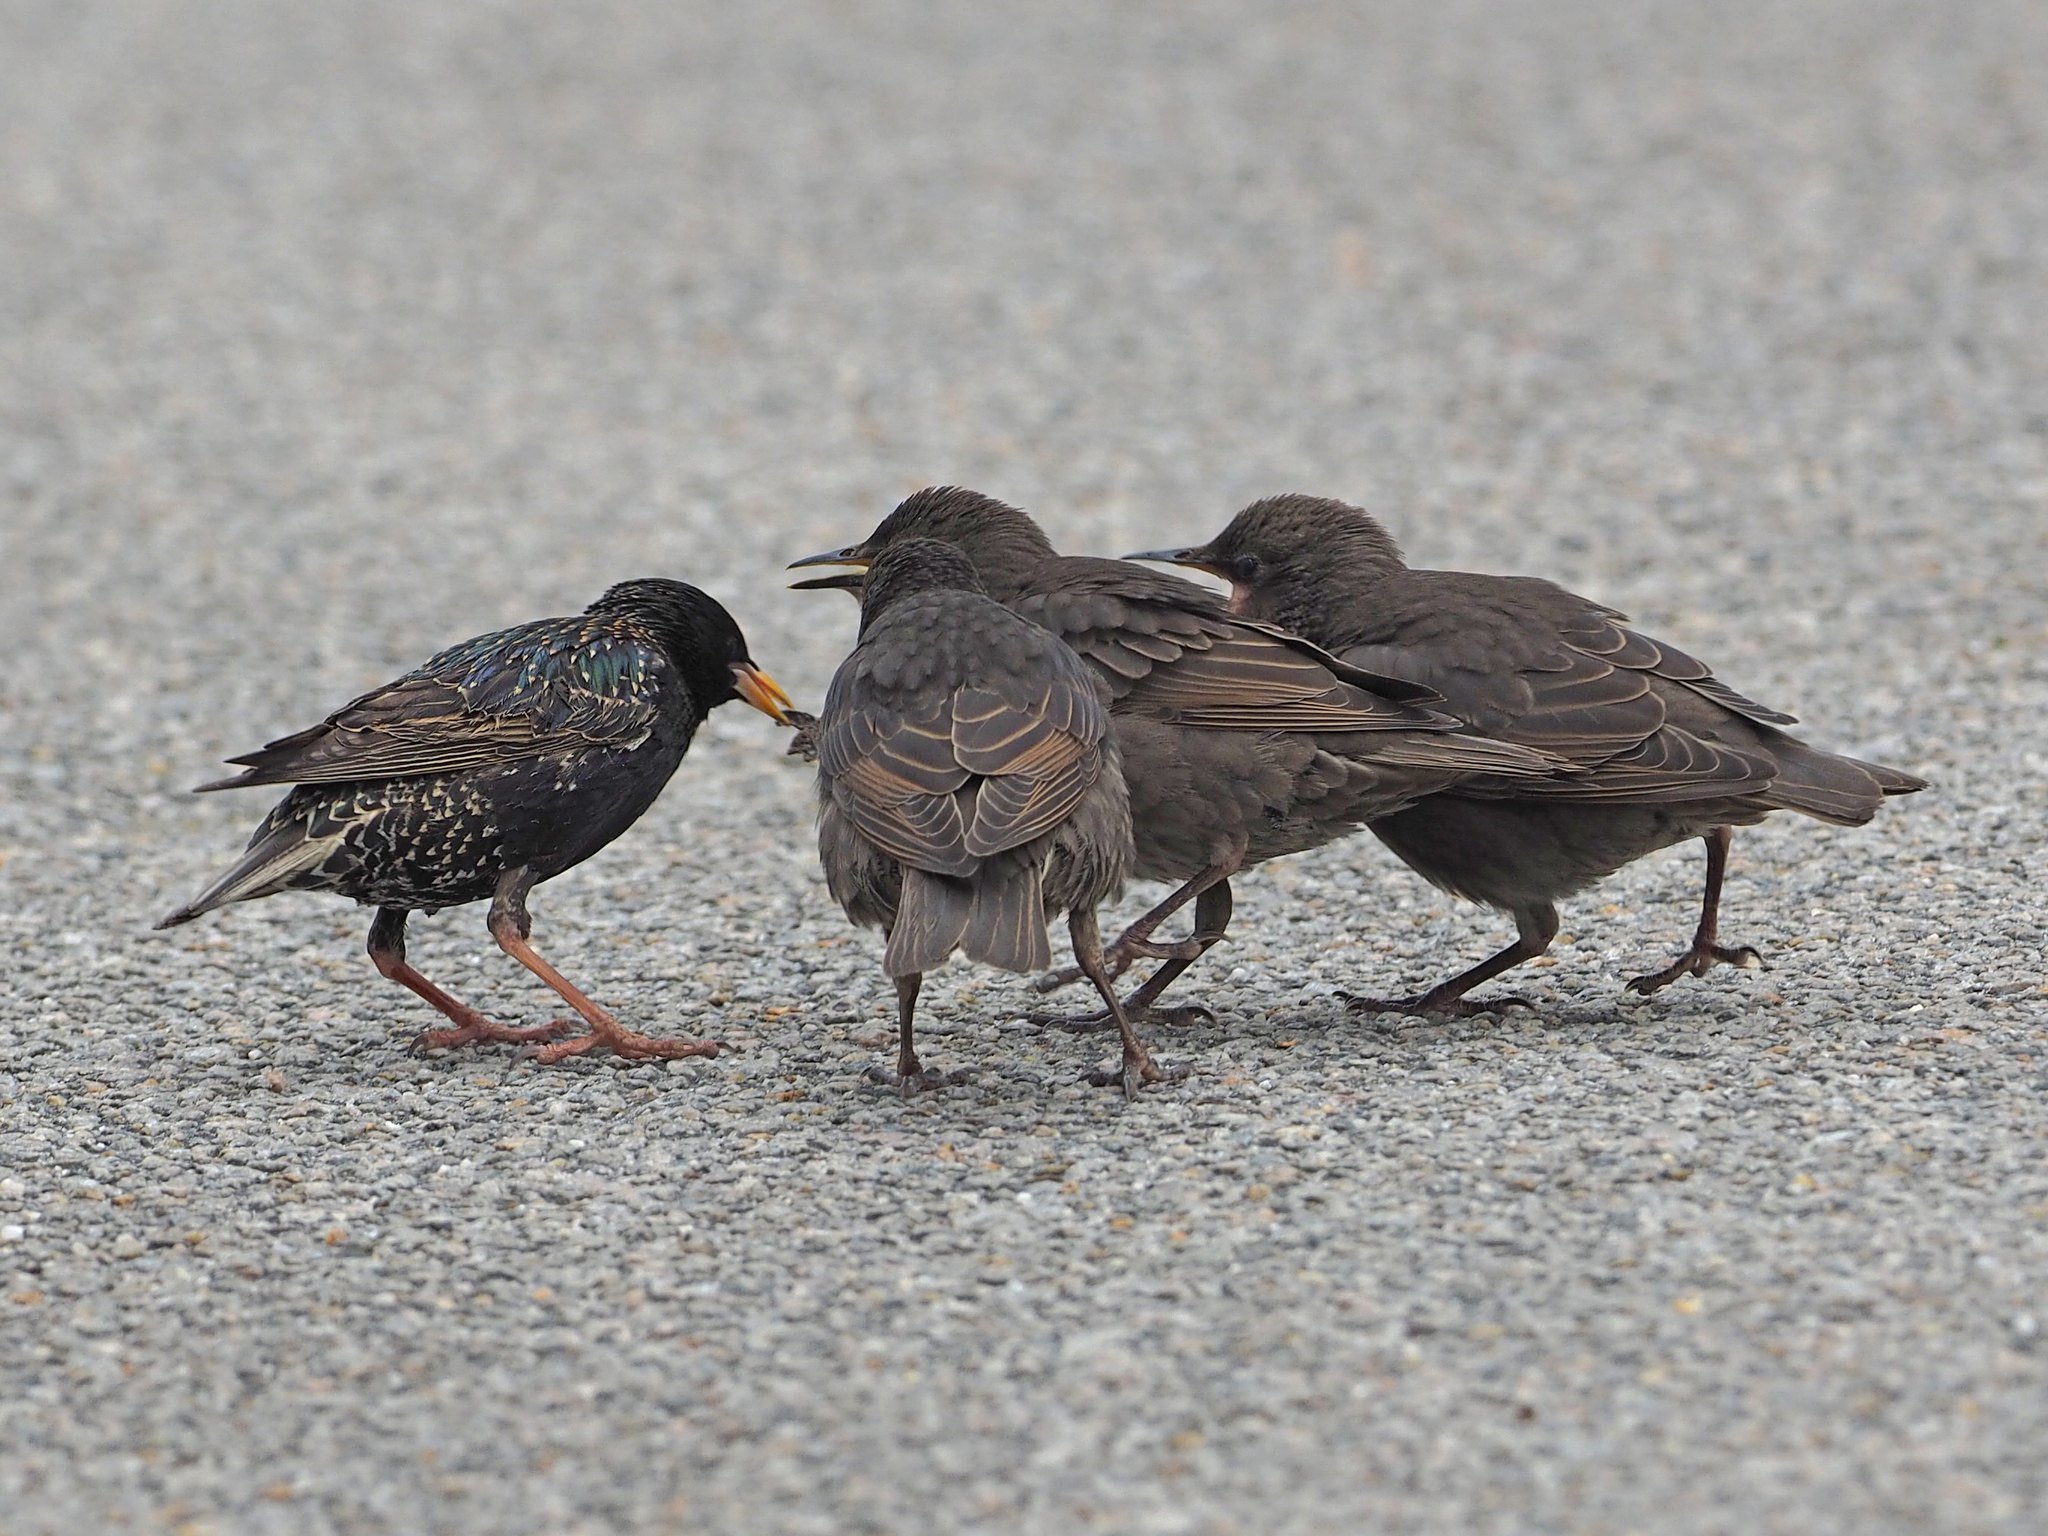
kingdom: Animalia
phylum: Chordata
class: Aves
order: Passeriformes
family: Sturnidae
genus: Sturnus
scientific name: Sturnus vulgaris
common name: Common starling
